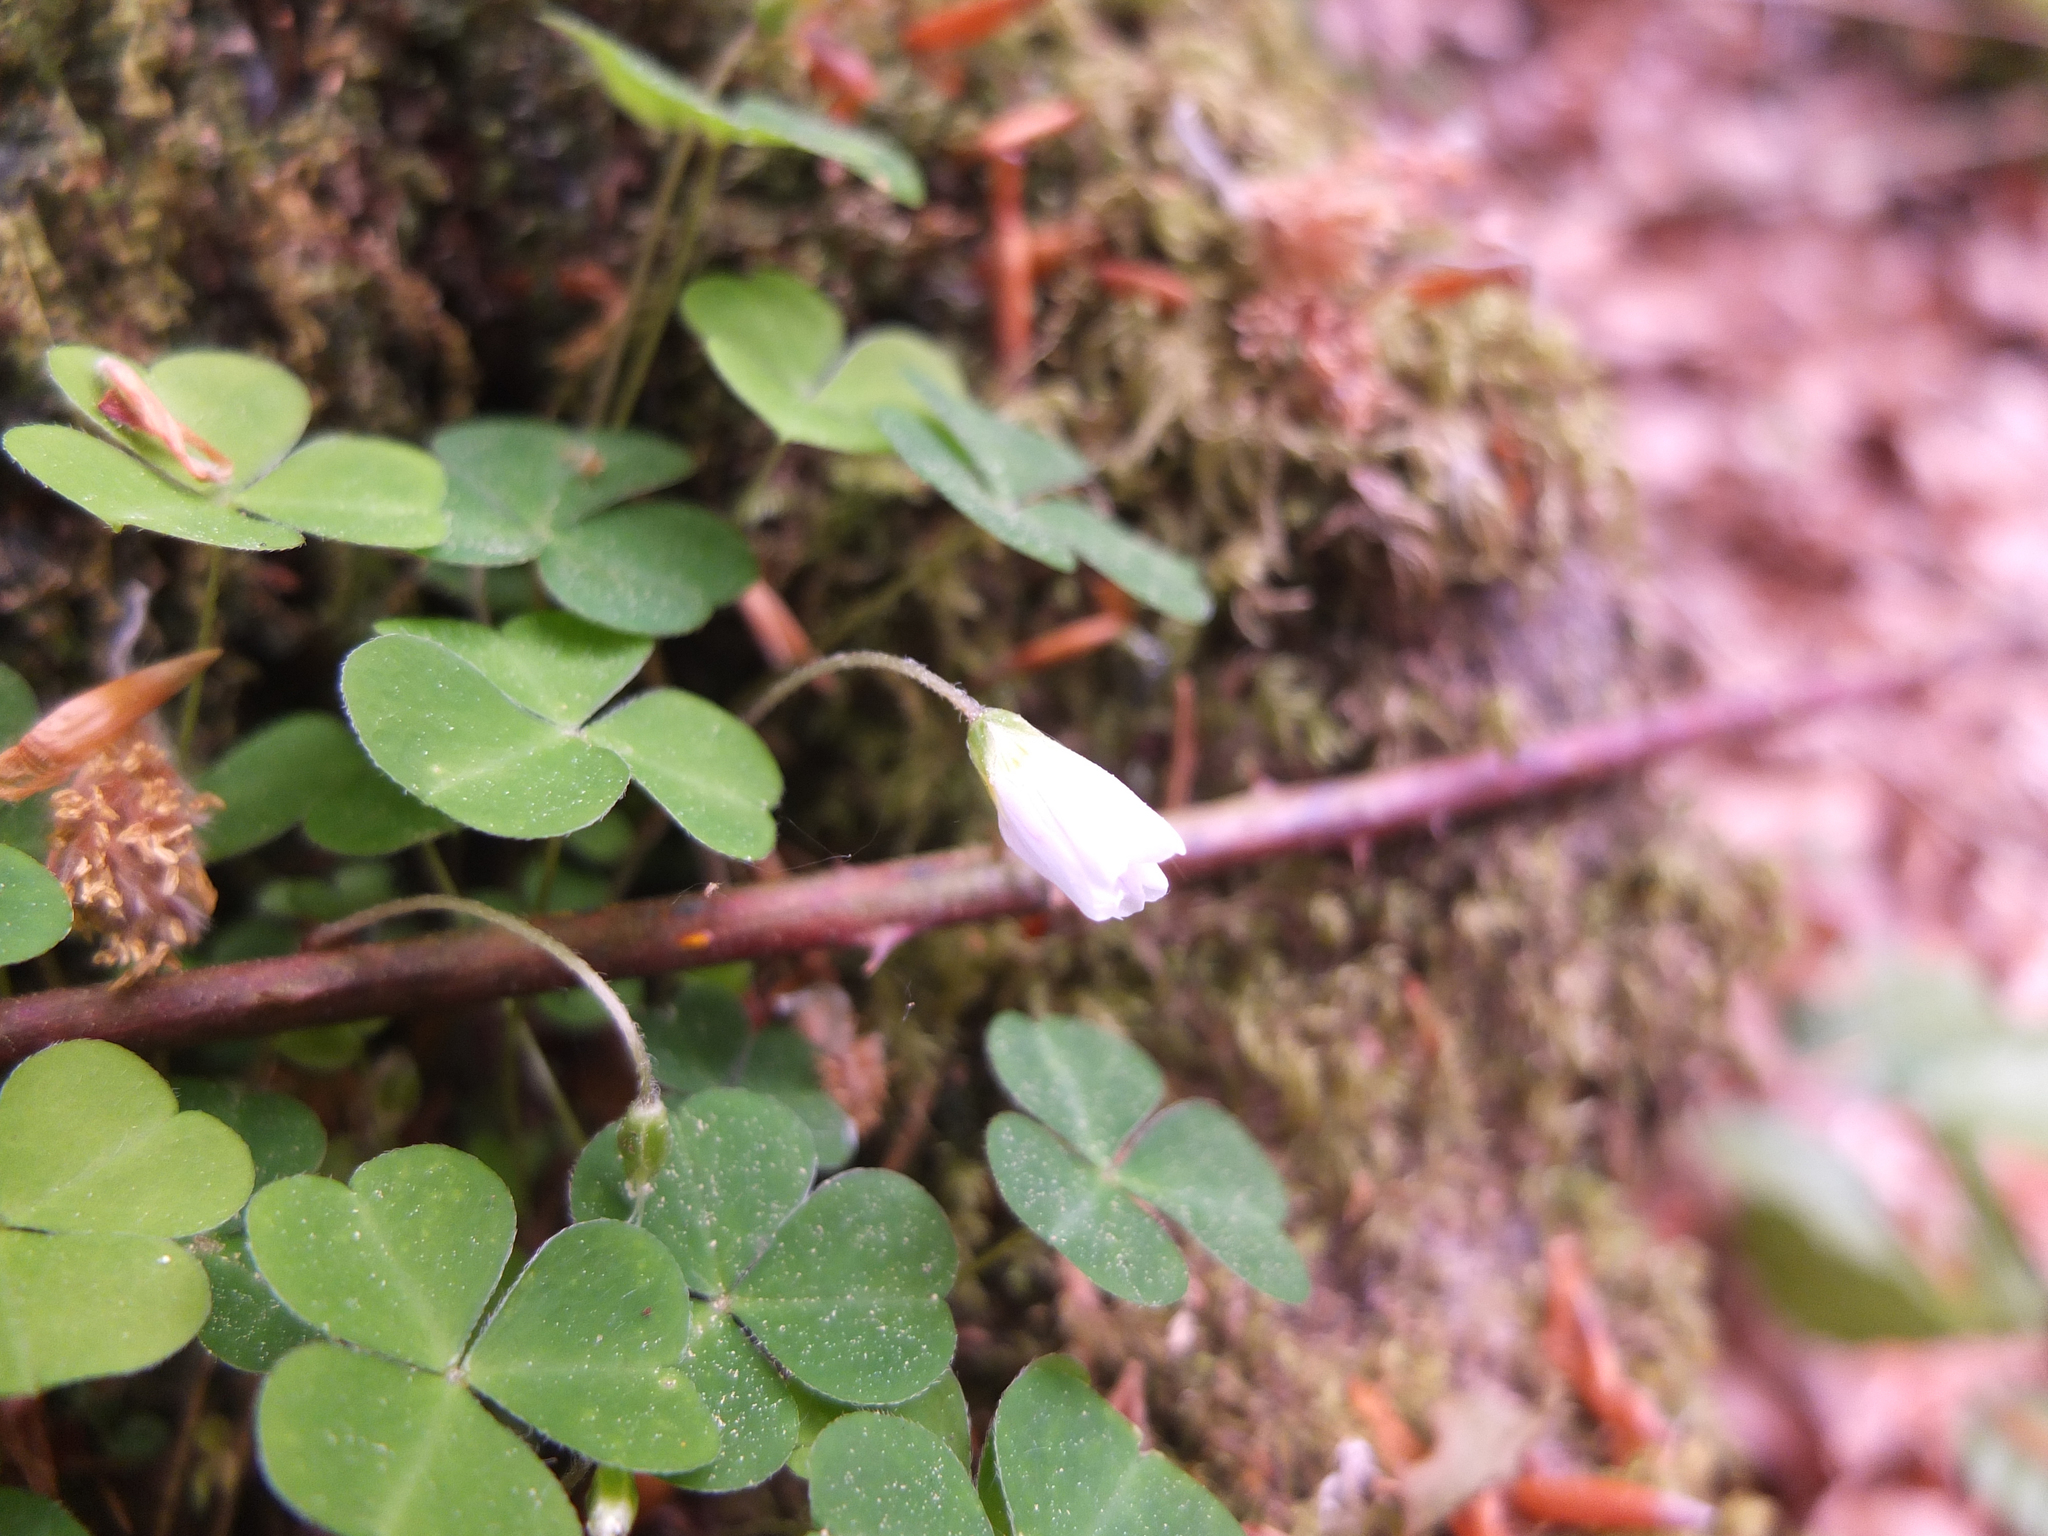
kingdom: Plantae
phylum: Tracheophyta
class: Magnoliopsida
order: Oxalidales
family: Oxalidaceae
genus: Oxalis
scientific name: Oxalis acetosella
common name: Wood-sorrel
